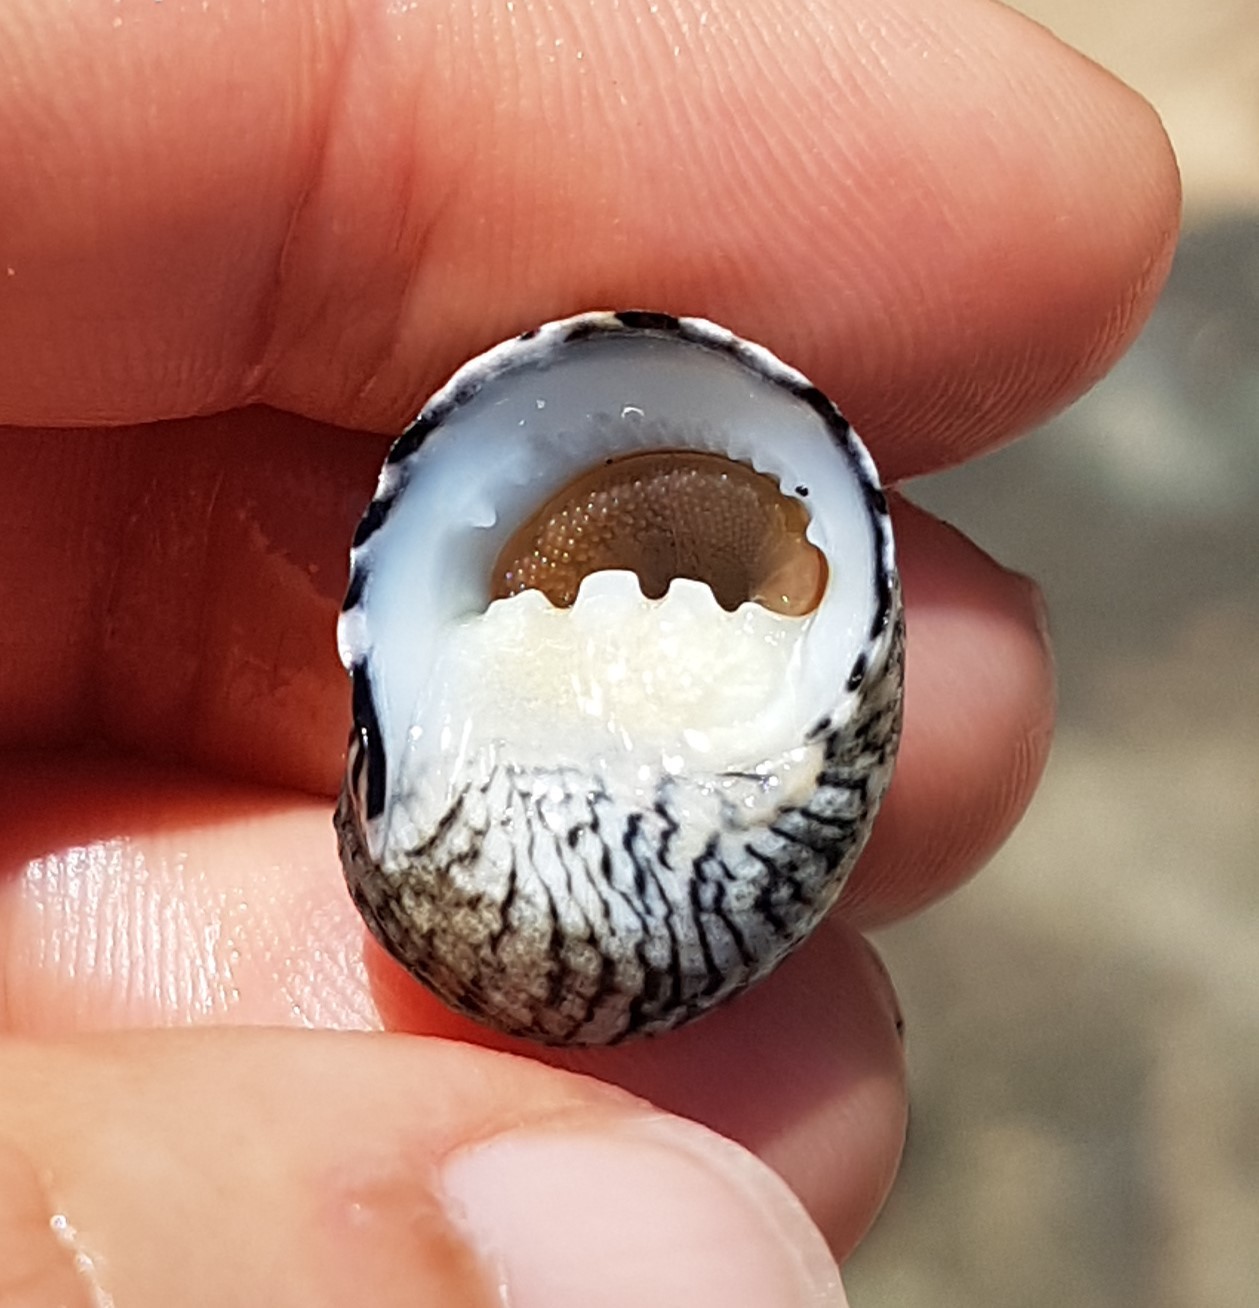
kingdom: Animalia
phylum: Mollusca
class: Gastropoda
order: Cycloneritida
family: Neritidae
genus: Nerita
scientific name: Nerita versicolor
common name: Four-tooth nerite
